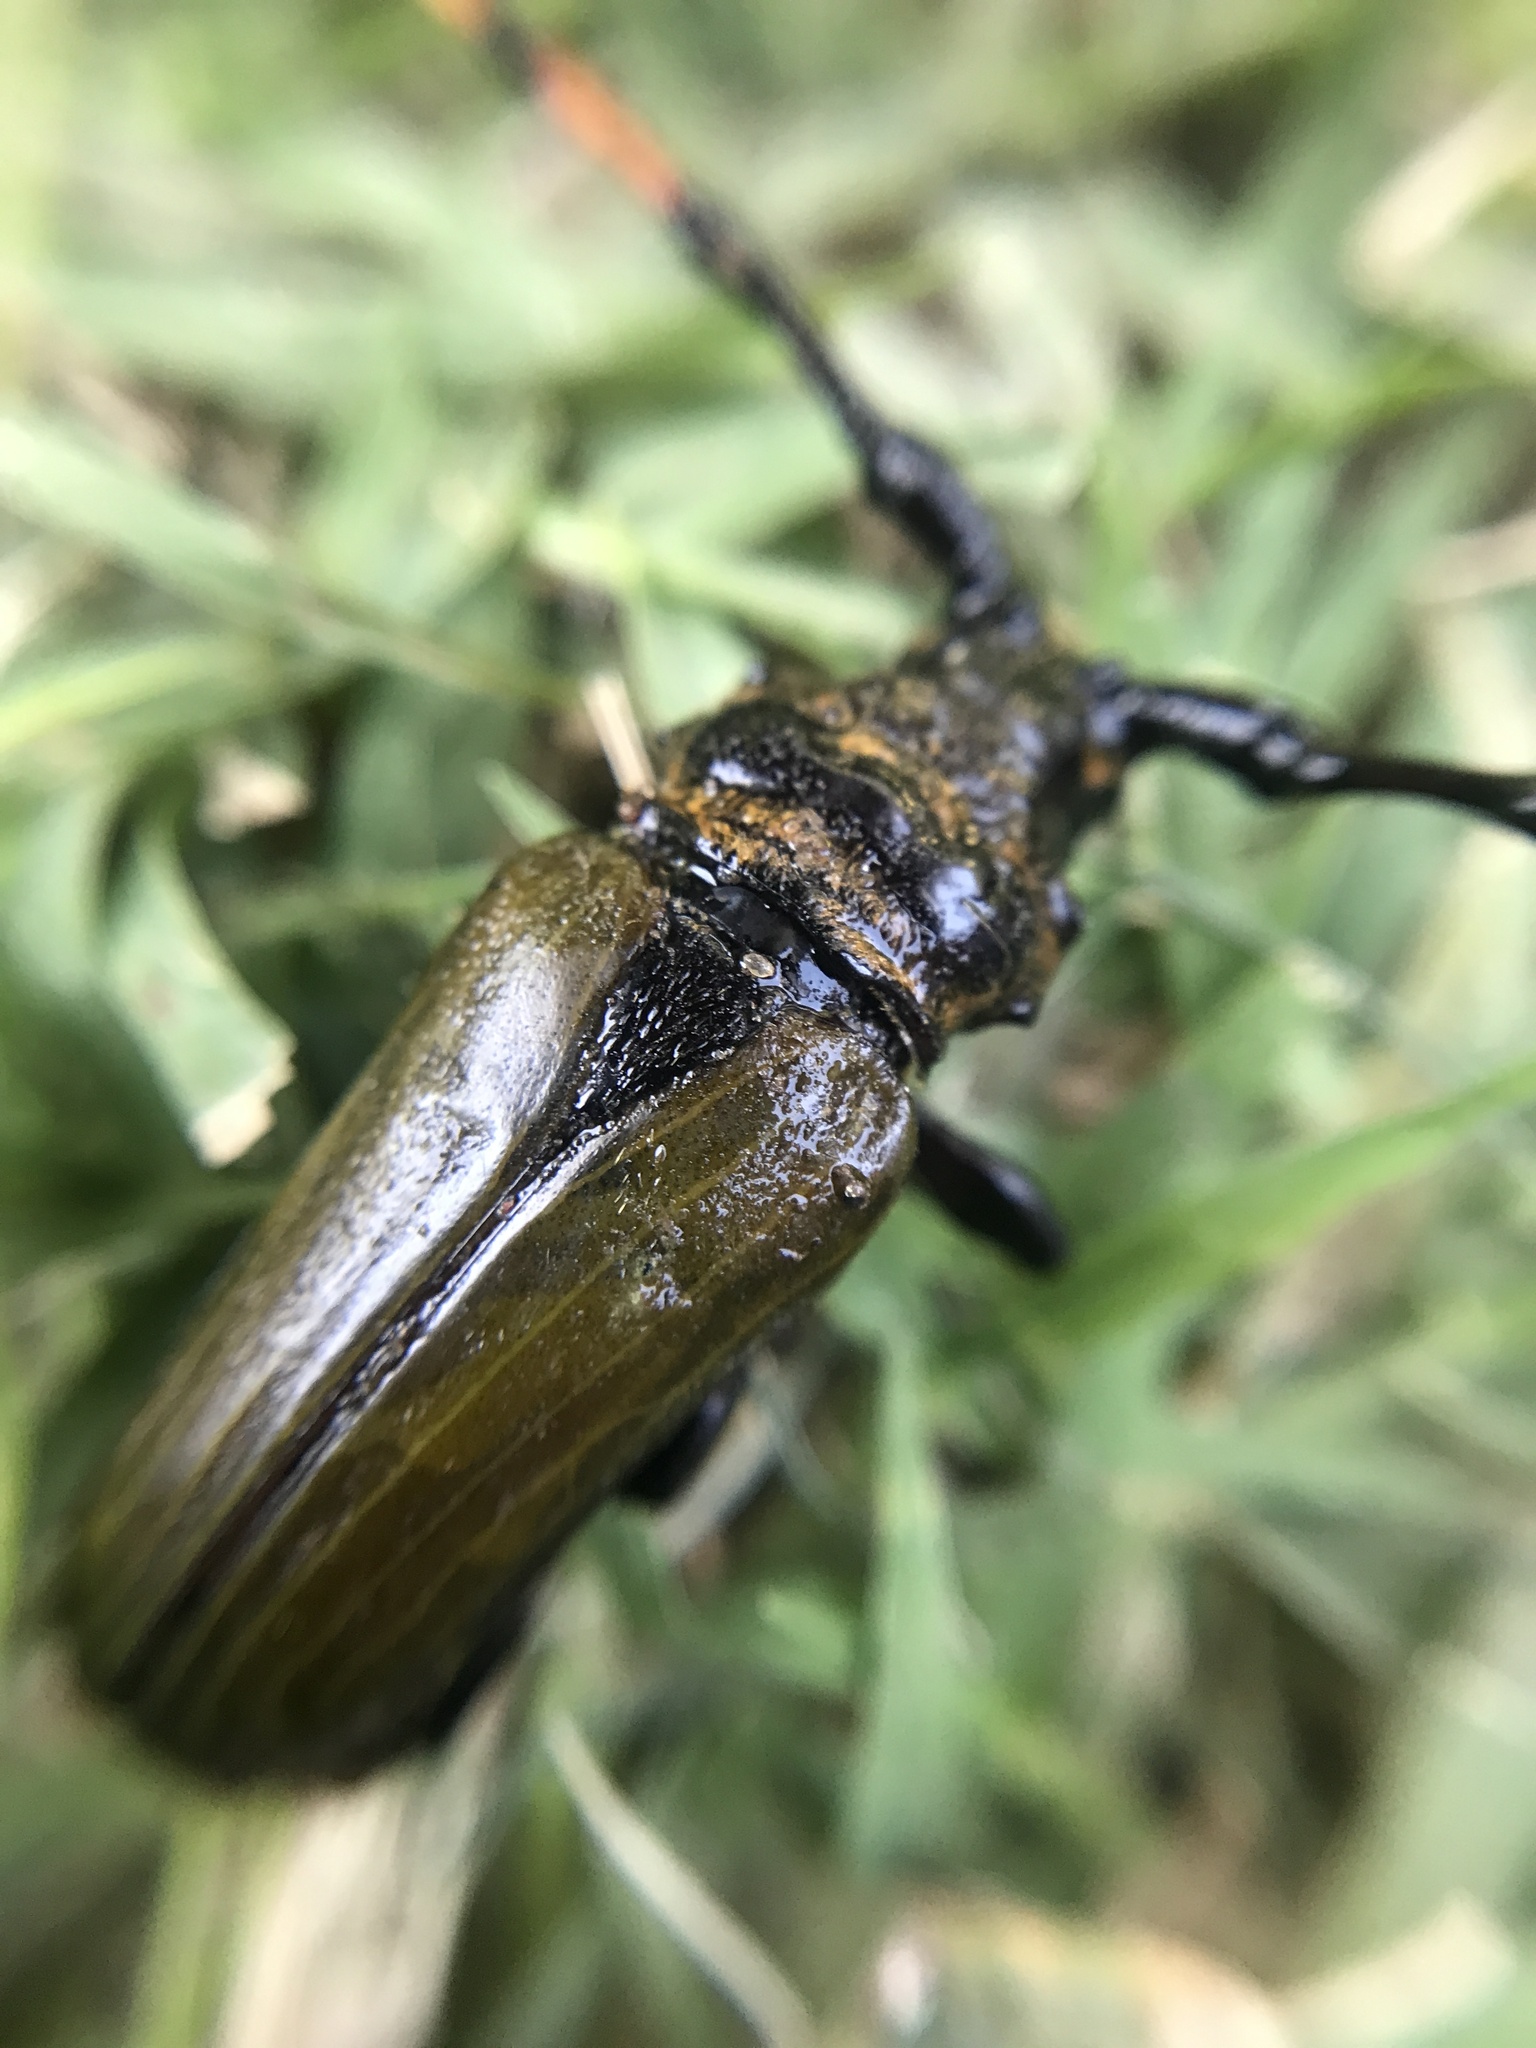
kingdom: Animalia
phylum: Arthropoda
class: Insecta
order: Coleoptera
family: Cerambycidae
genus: Retrachydes
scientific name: Retrachydes thoracicus
